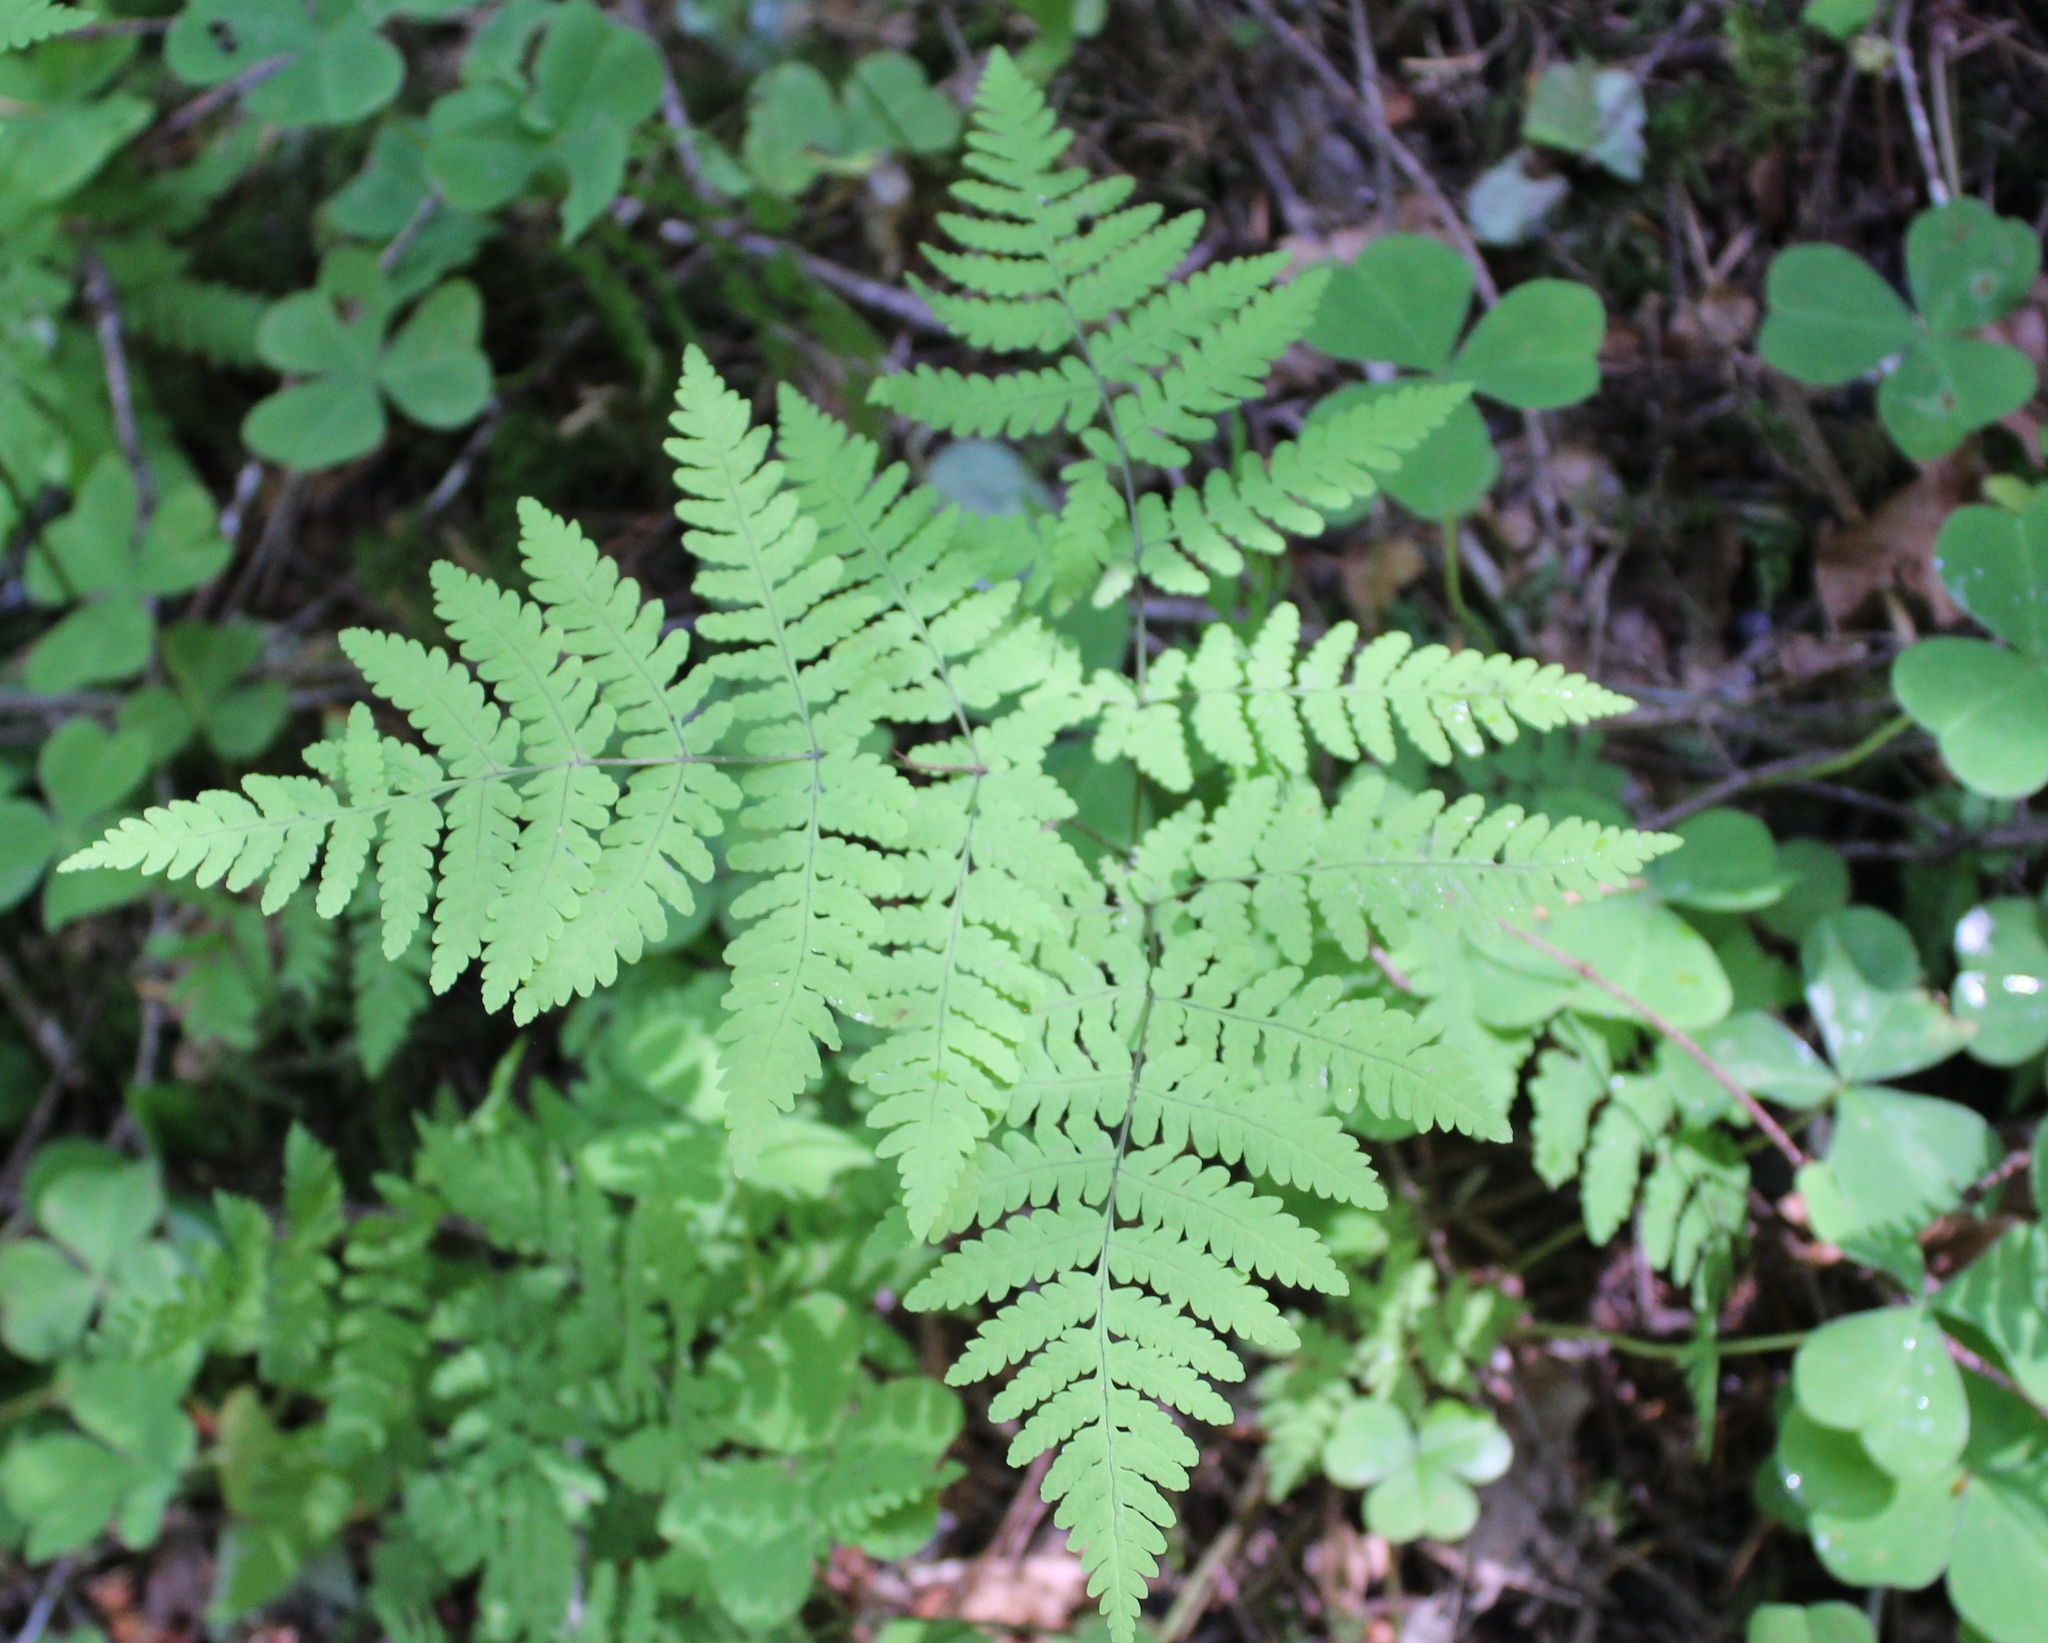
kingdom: Plantae
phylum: Tracheophyta
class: Polypodiopsida
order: Polypodiales
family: Cystopteridaceae
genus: Gymnocarpium
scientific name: Gymnocarpium disjunctum
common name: Western oak fern
